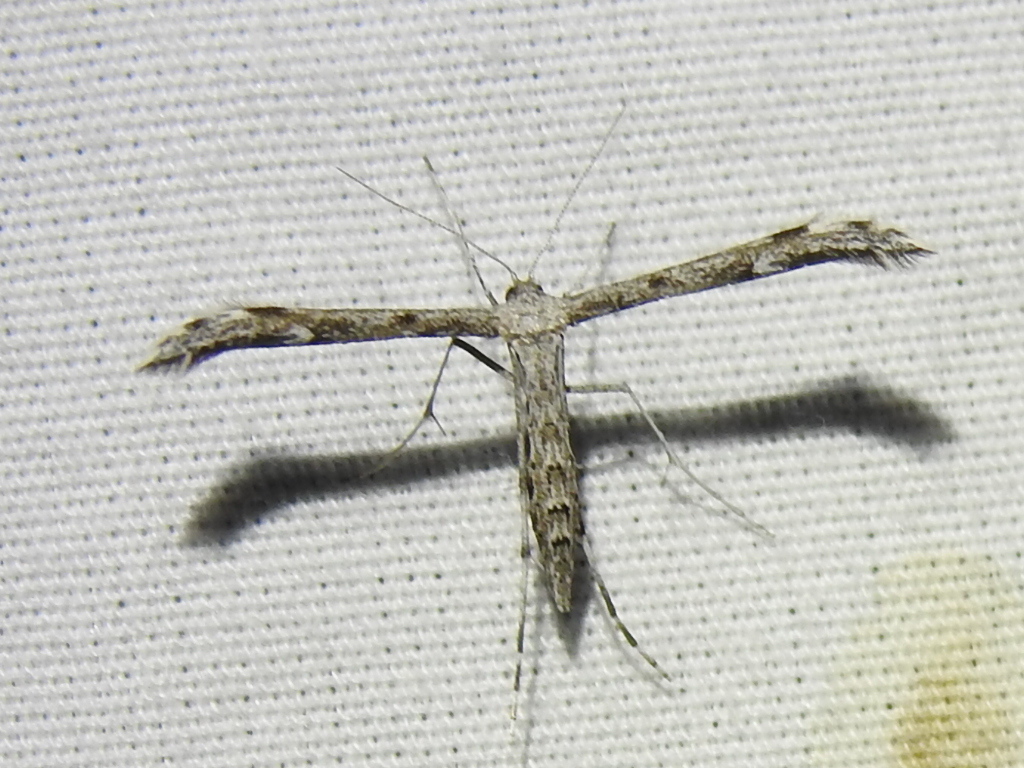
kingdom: Animalia
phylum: Arthropoda
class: Insecta
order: Lepidoptera
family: Pterophoridae
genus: Hellinsia
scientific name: Hellinsia inquinatus
